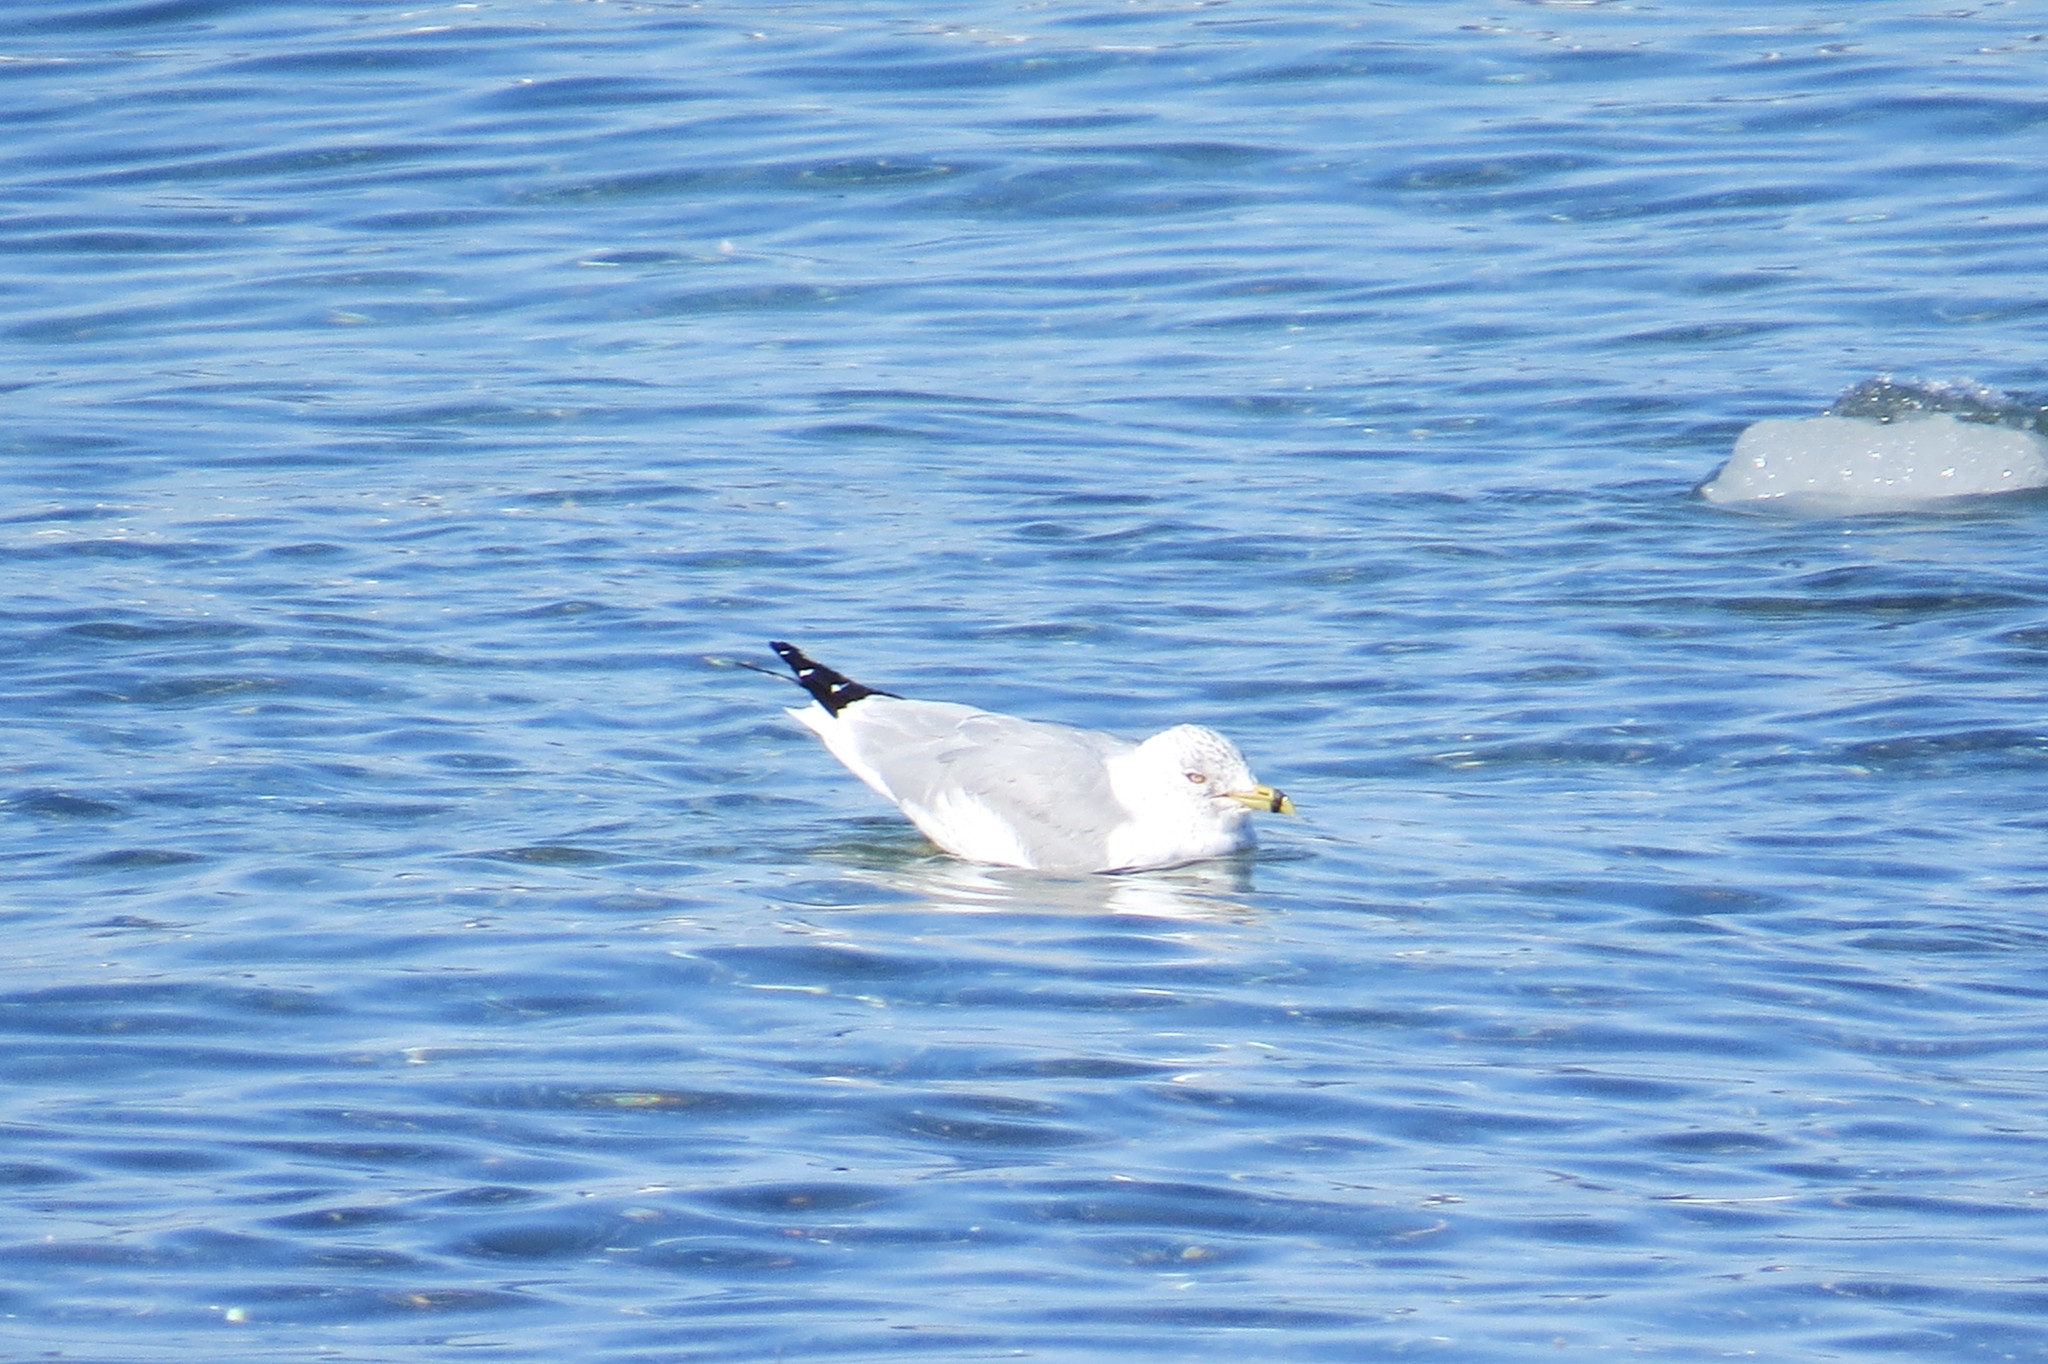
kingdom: Animalia
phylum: Chordata
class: Aves
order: Charadriiformes
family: Laridae
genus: Larus
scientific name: Larus delawarensis
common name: Ring-billed gull
